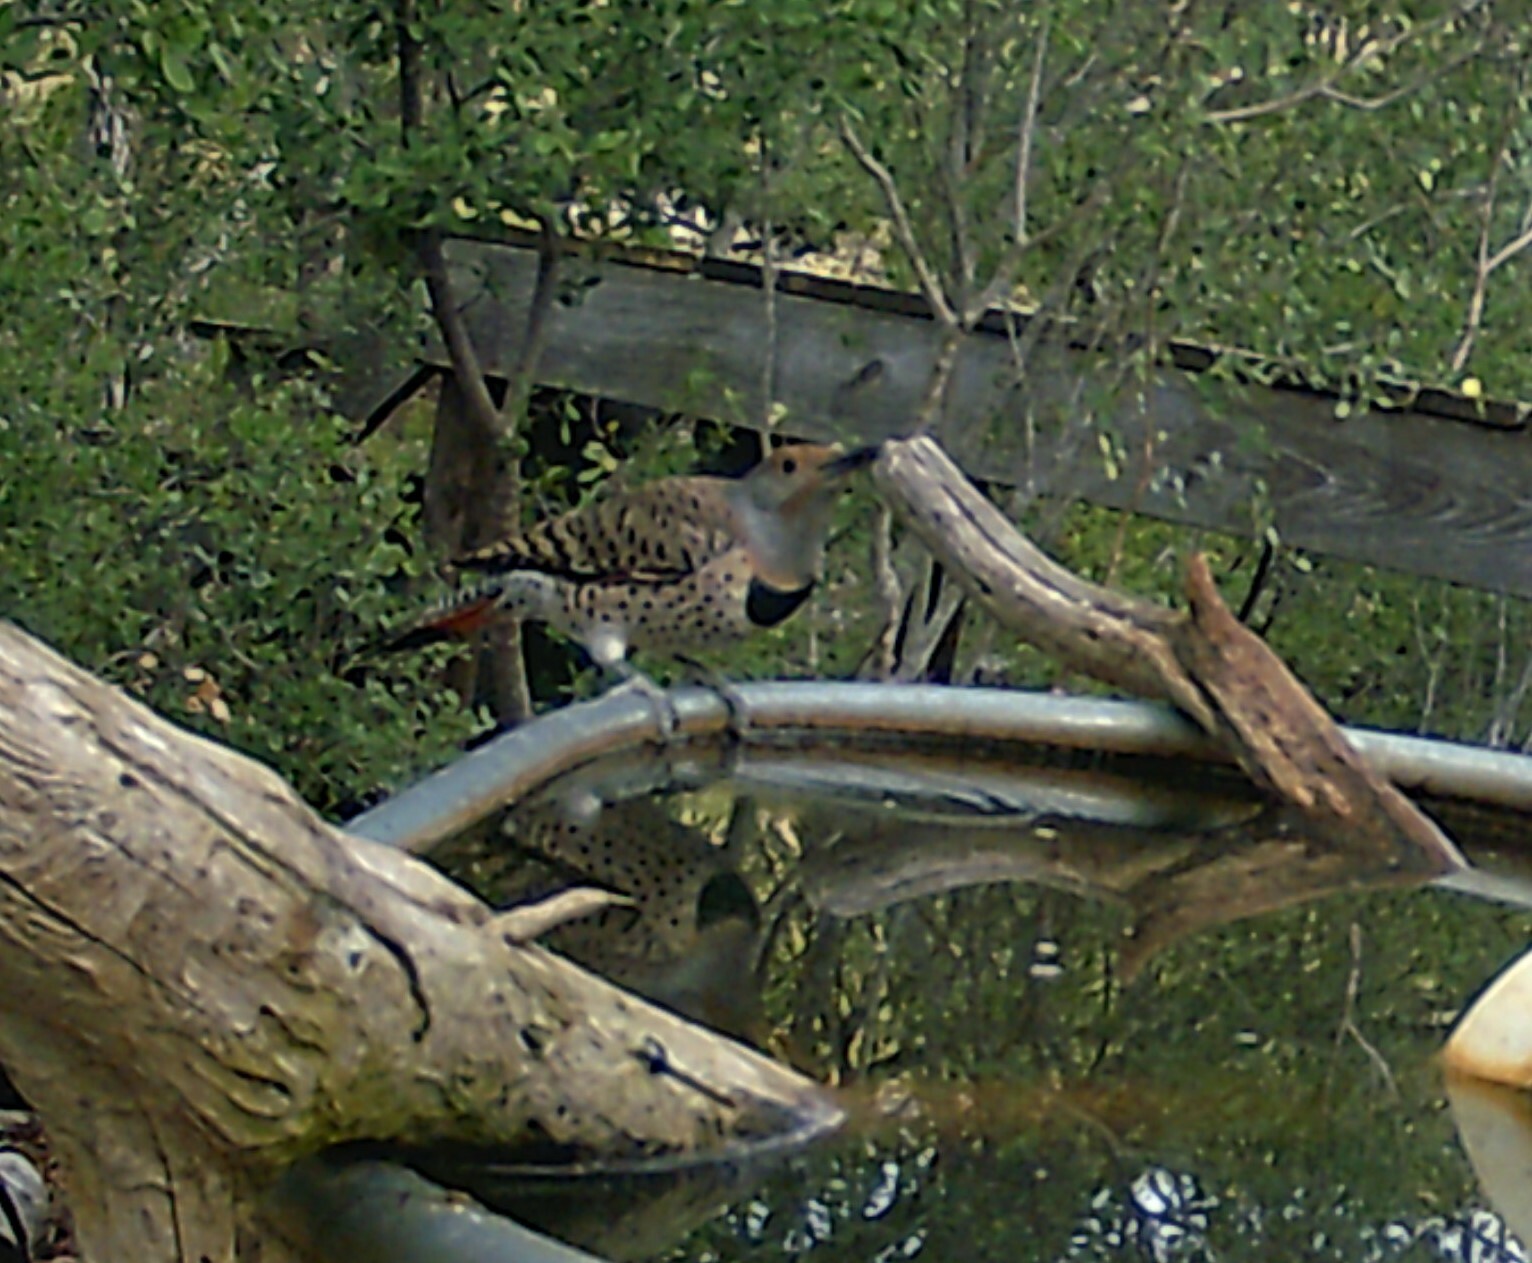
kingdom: Animalia
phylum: Chordata
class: Aves
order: Piciformes
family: Picidae
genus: Colaptes
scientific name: Colaptes auratus
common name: Northern flicker
